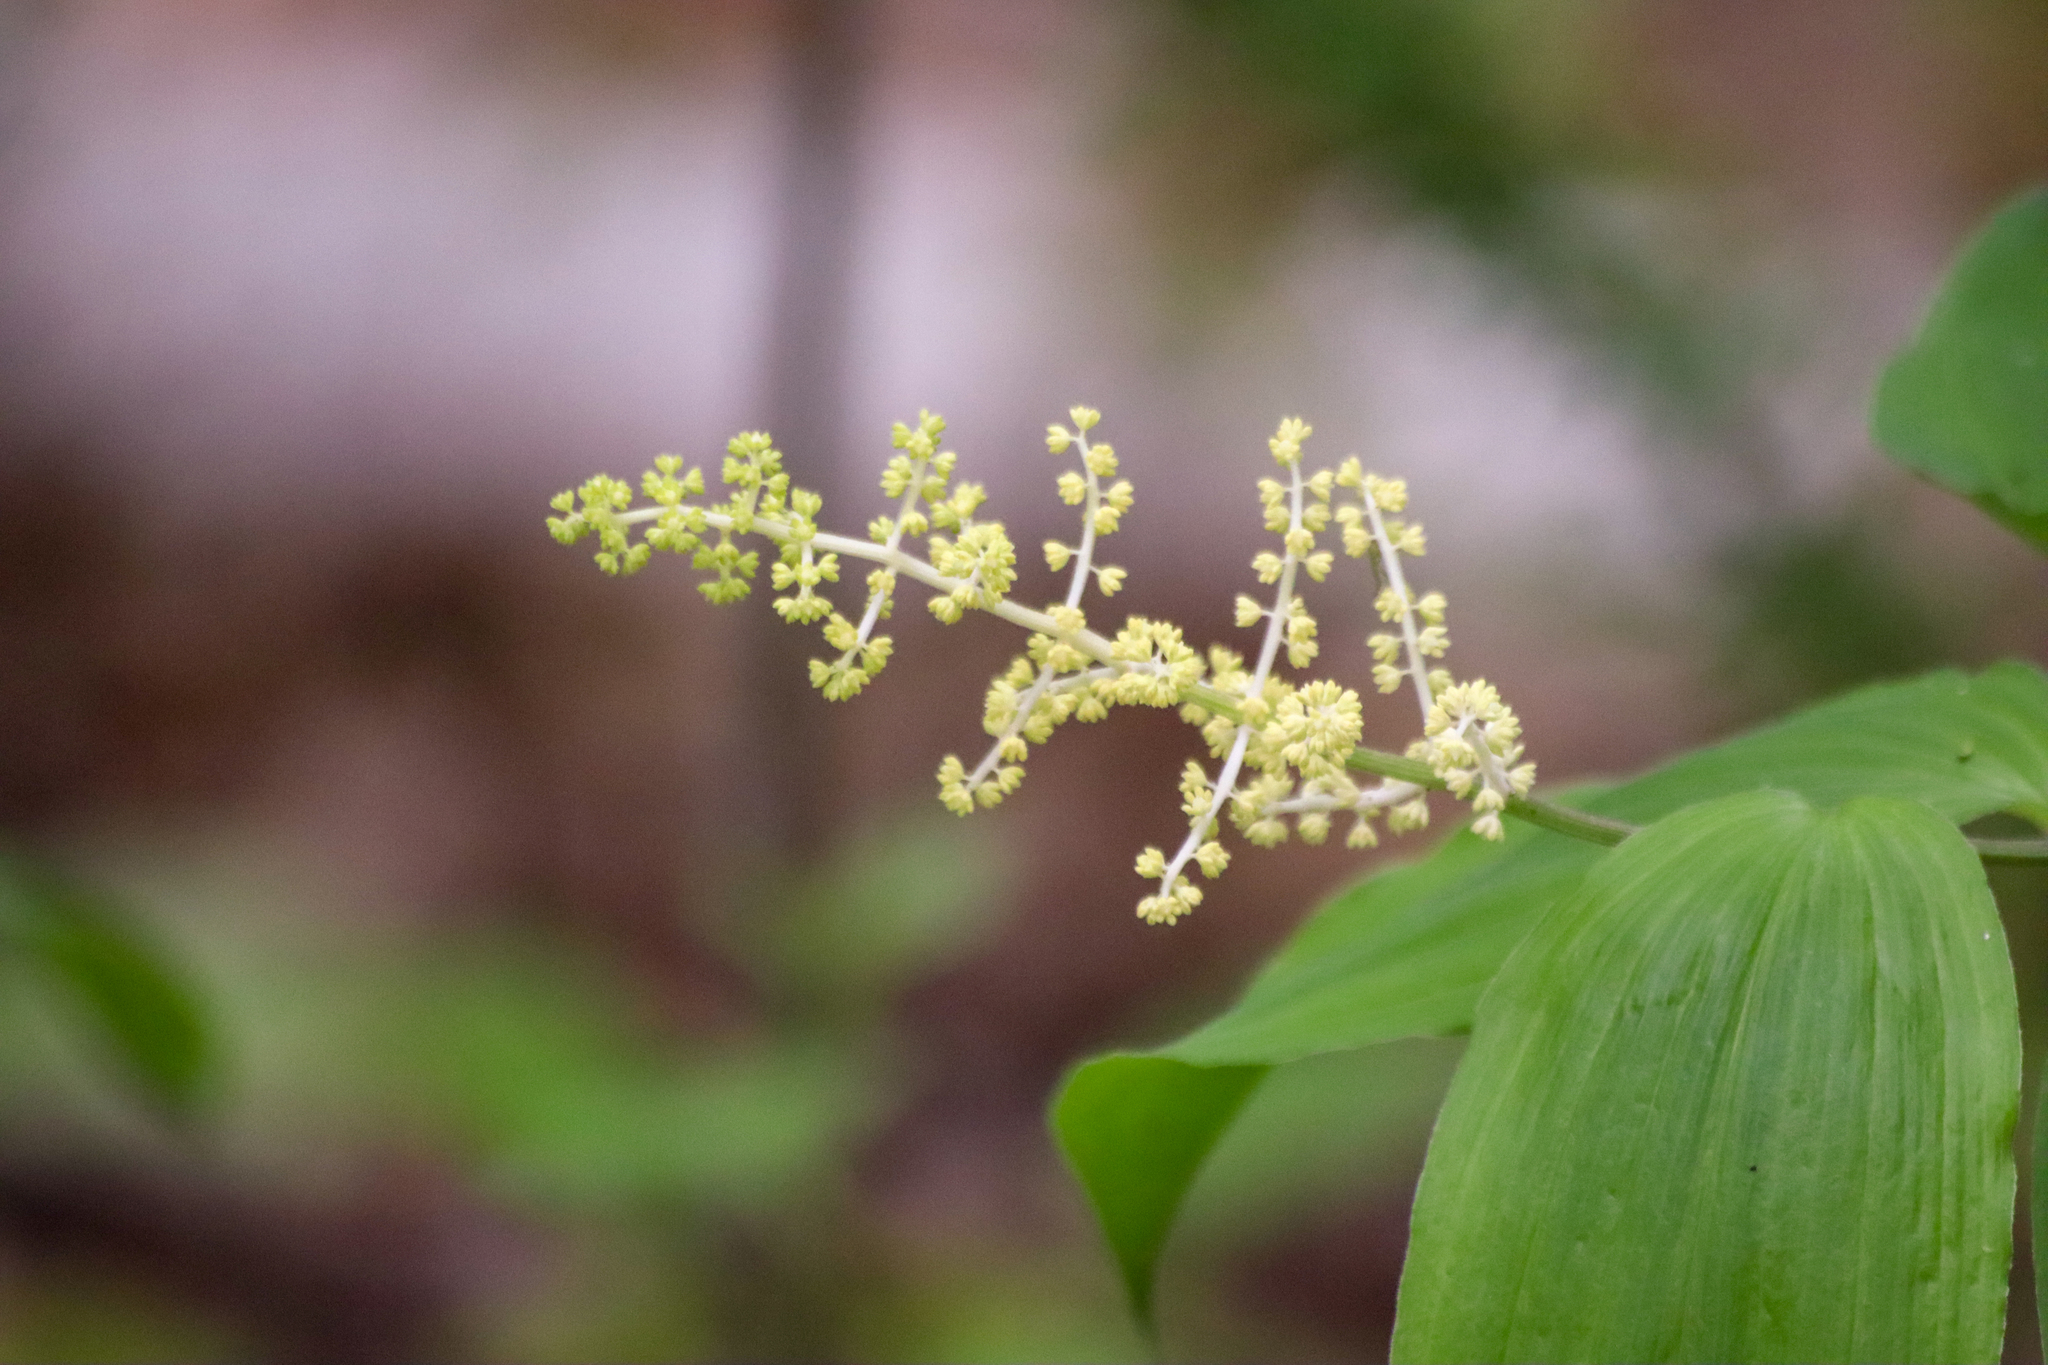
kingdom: Plantae
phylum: Tracheophyta
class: Liliopsida
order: Asparagales
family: Asparagaceae
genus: Maianthemum
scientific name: Maianthemum racemosum
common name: False spikenard
